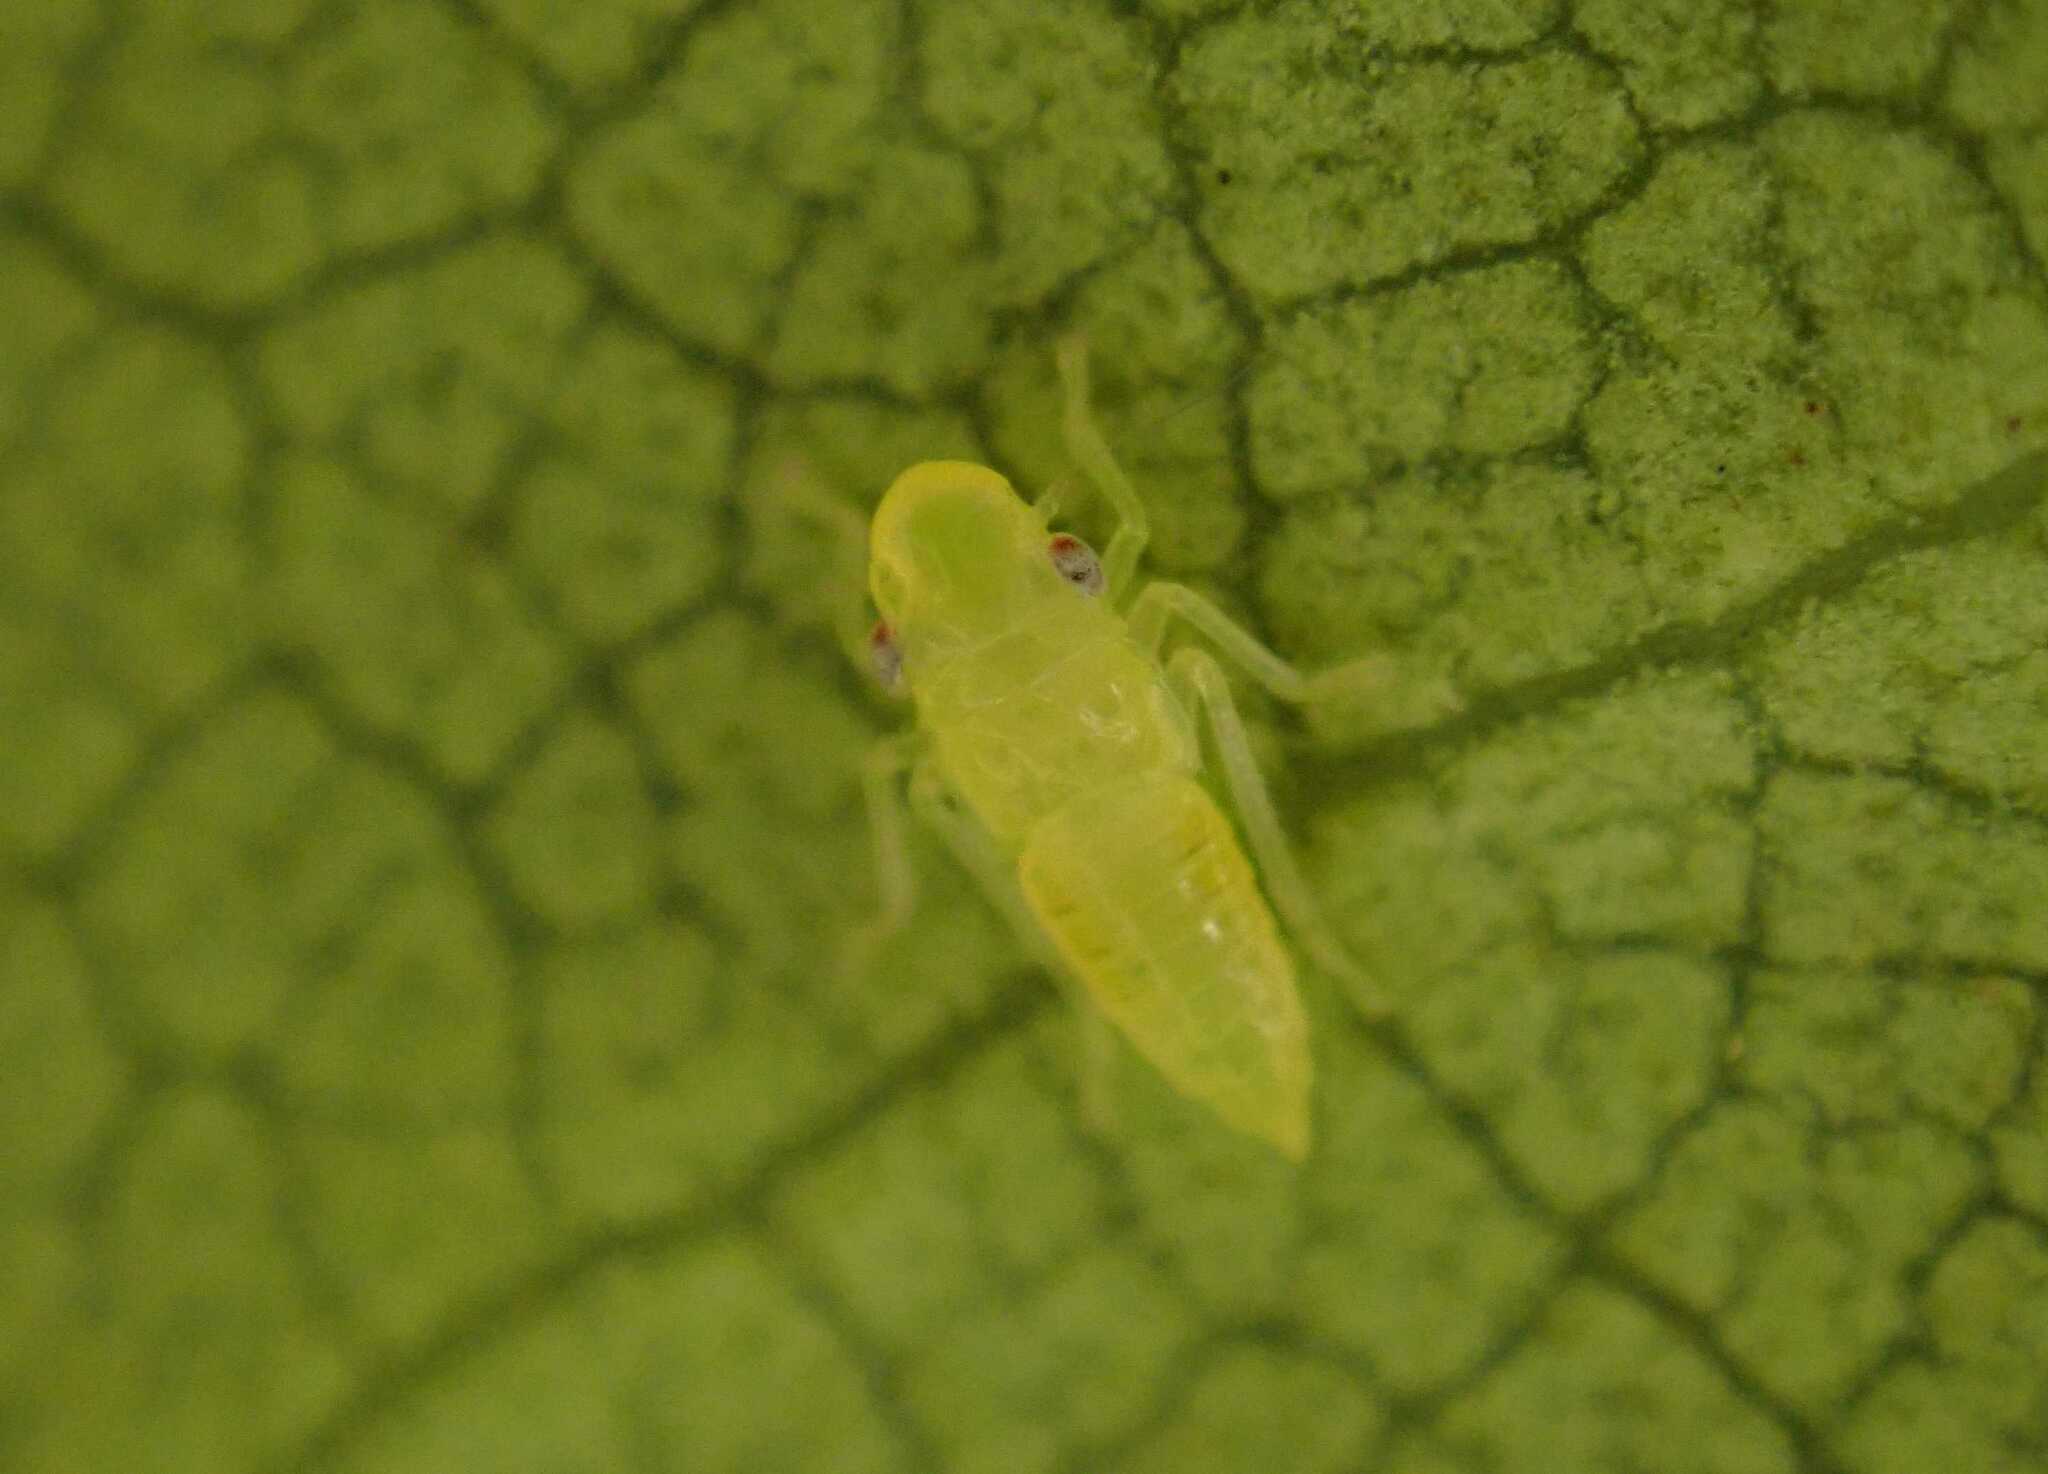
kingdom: Animalia
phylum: Arthropoda
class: Insecta
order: Hemiptera
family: Cicadellidae
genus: Graphocephala
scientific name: Graphocephala fennahi
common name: Rhododendron leafhopper
